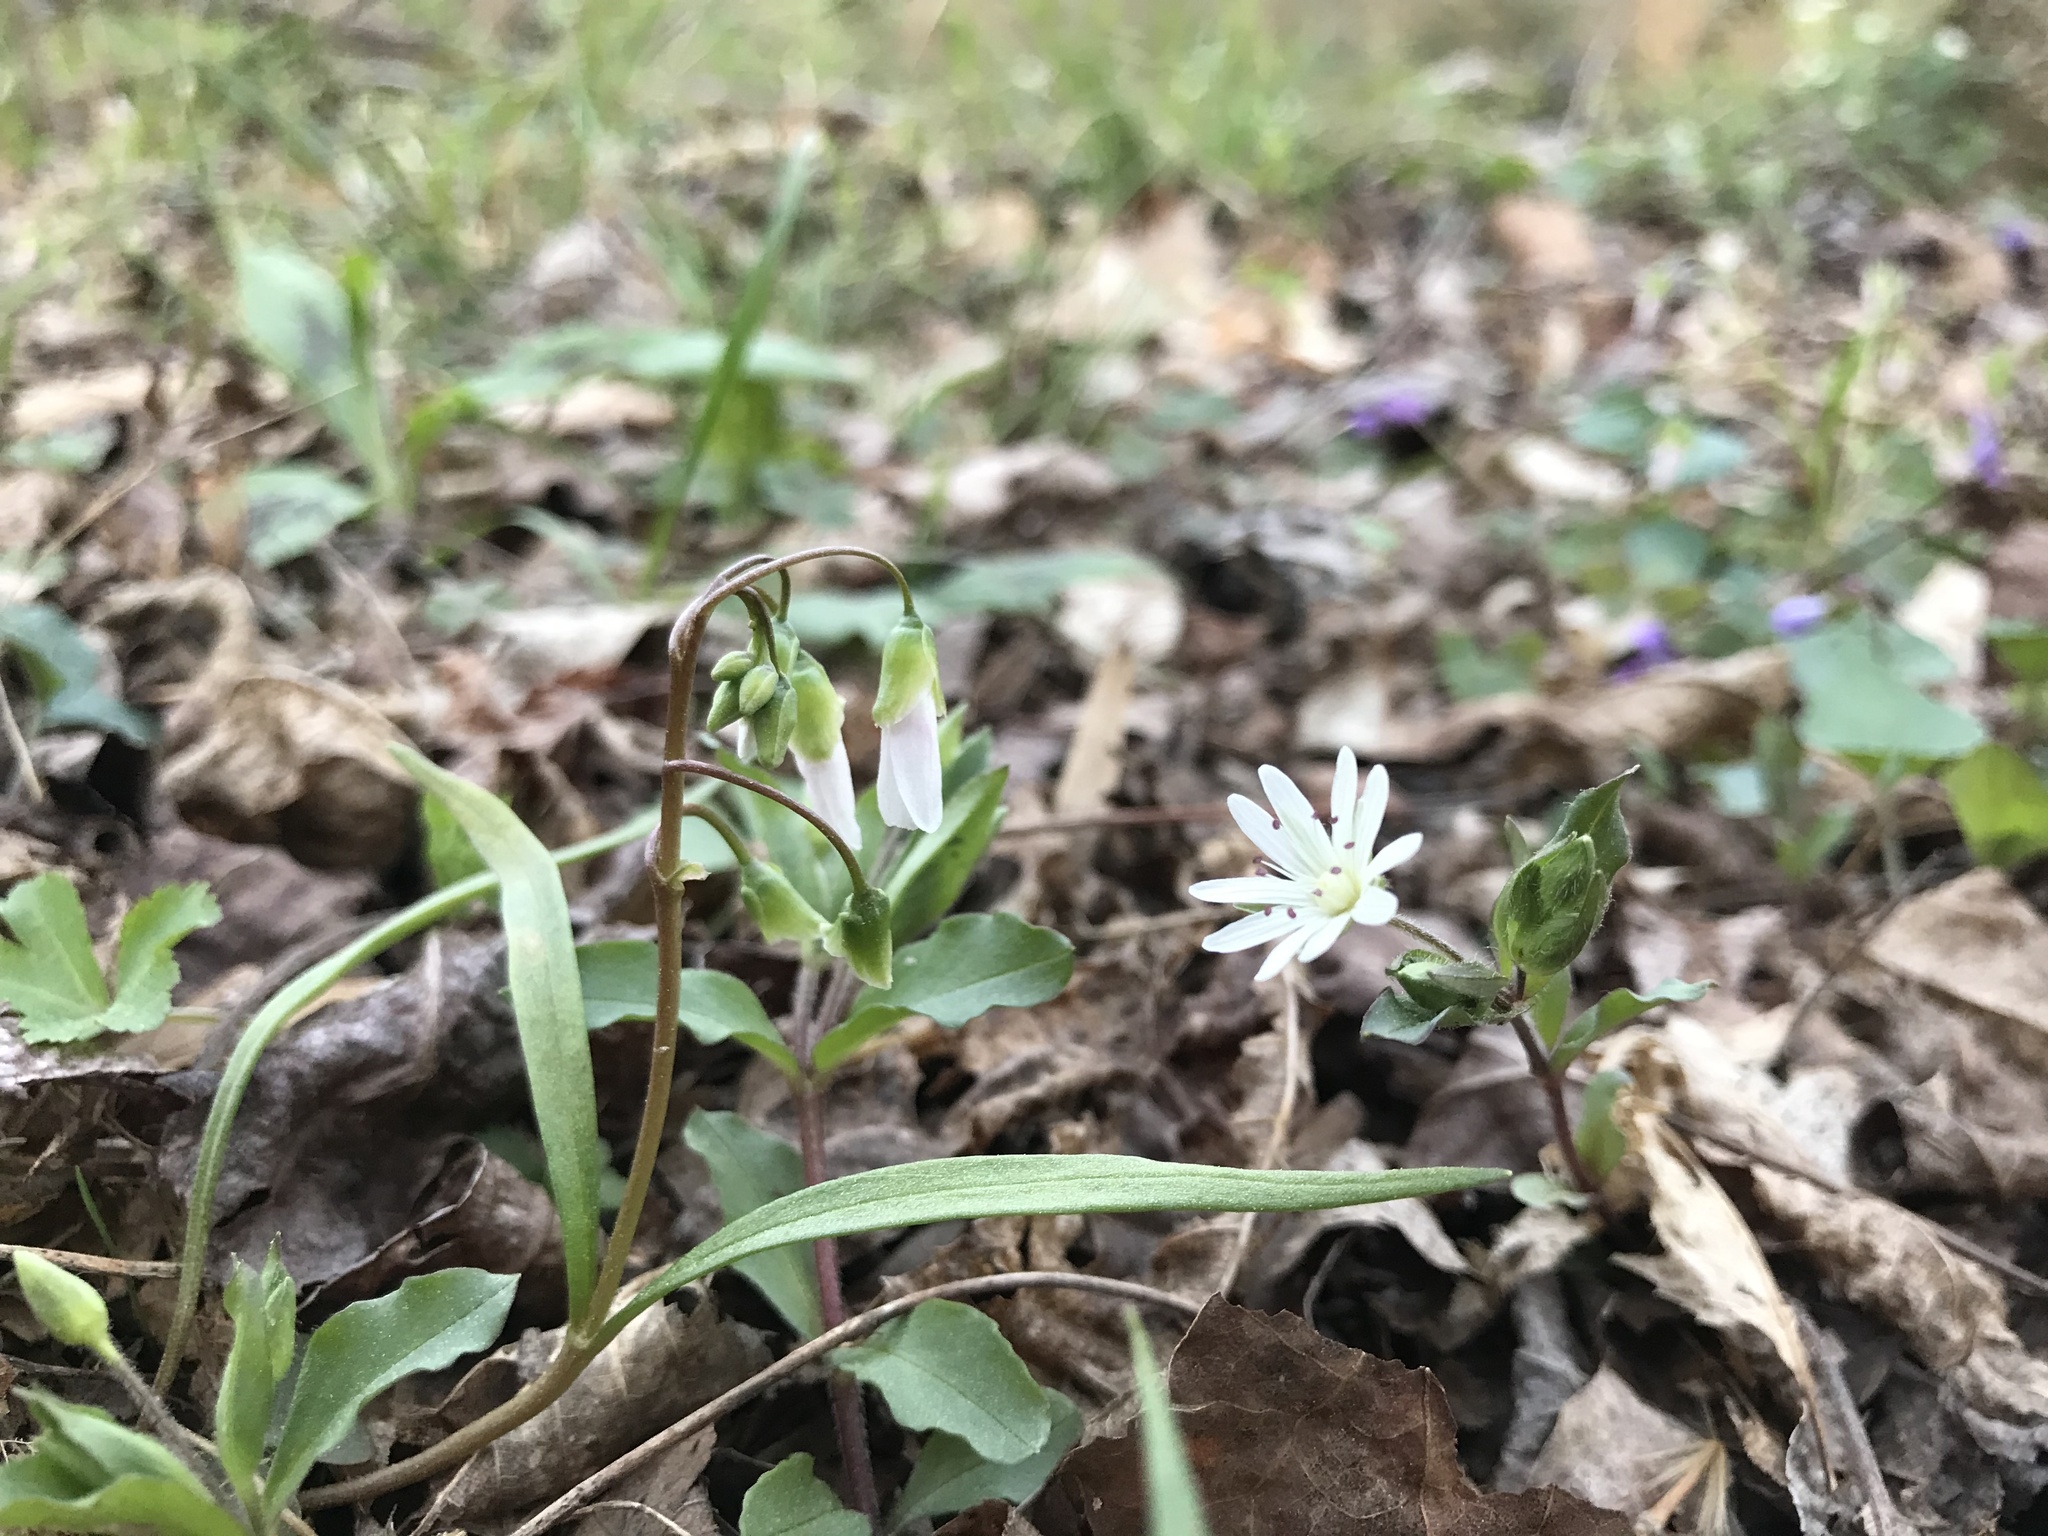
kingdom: Plantae
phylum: Tracheophyta
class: Magnoliopsida
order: Caryophyllales
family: Caryophyllaceae
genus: Stellaria
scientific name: Stellaria pubera
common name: Star chickweed
